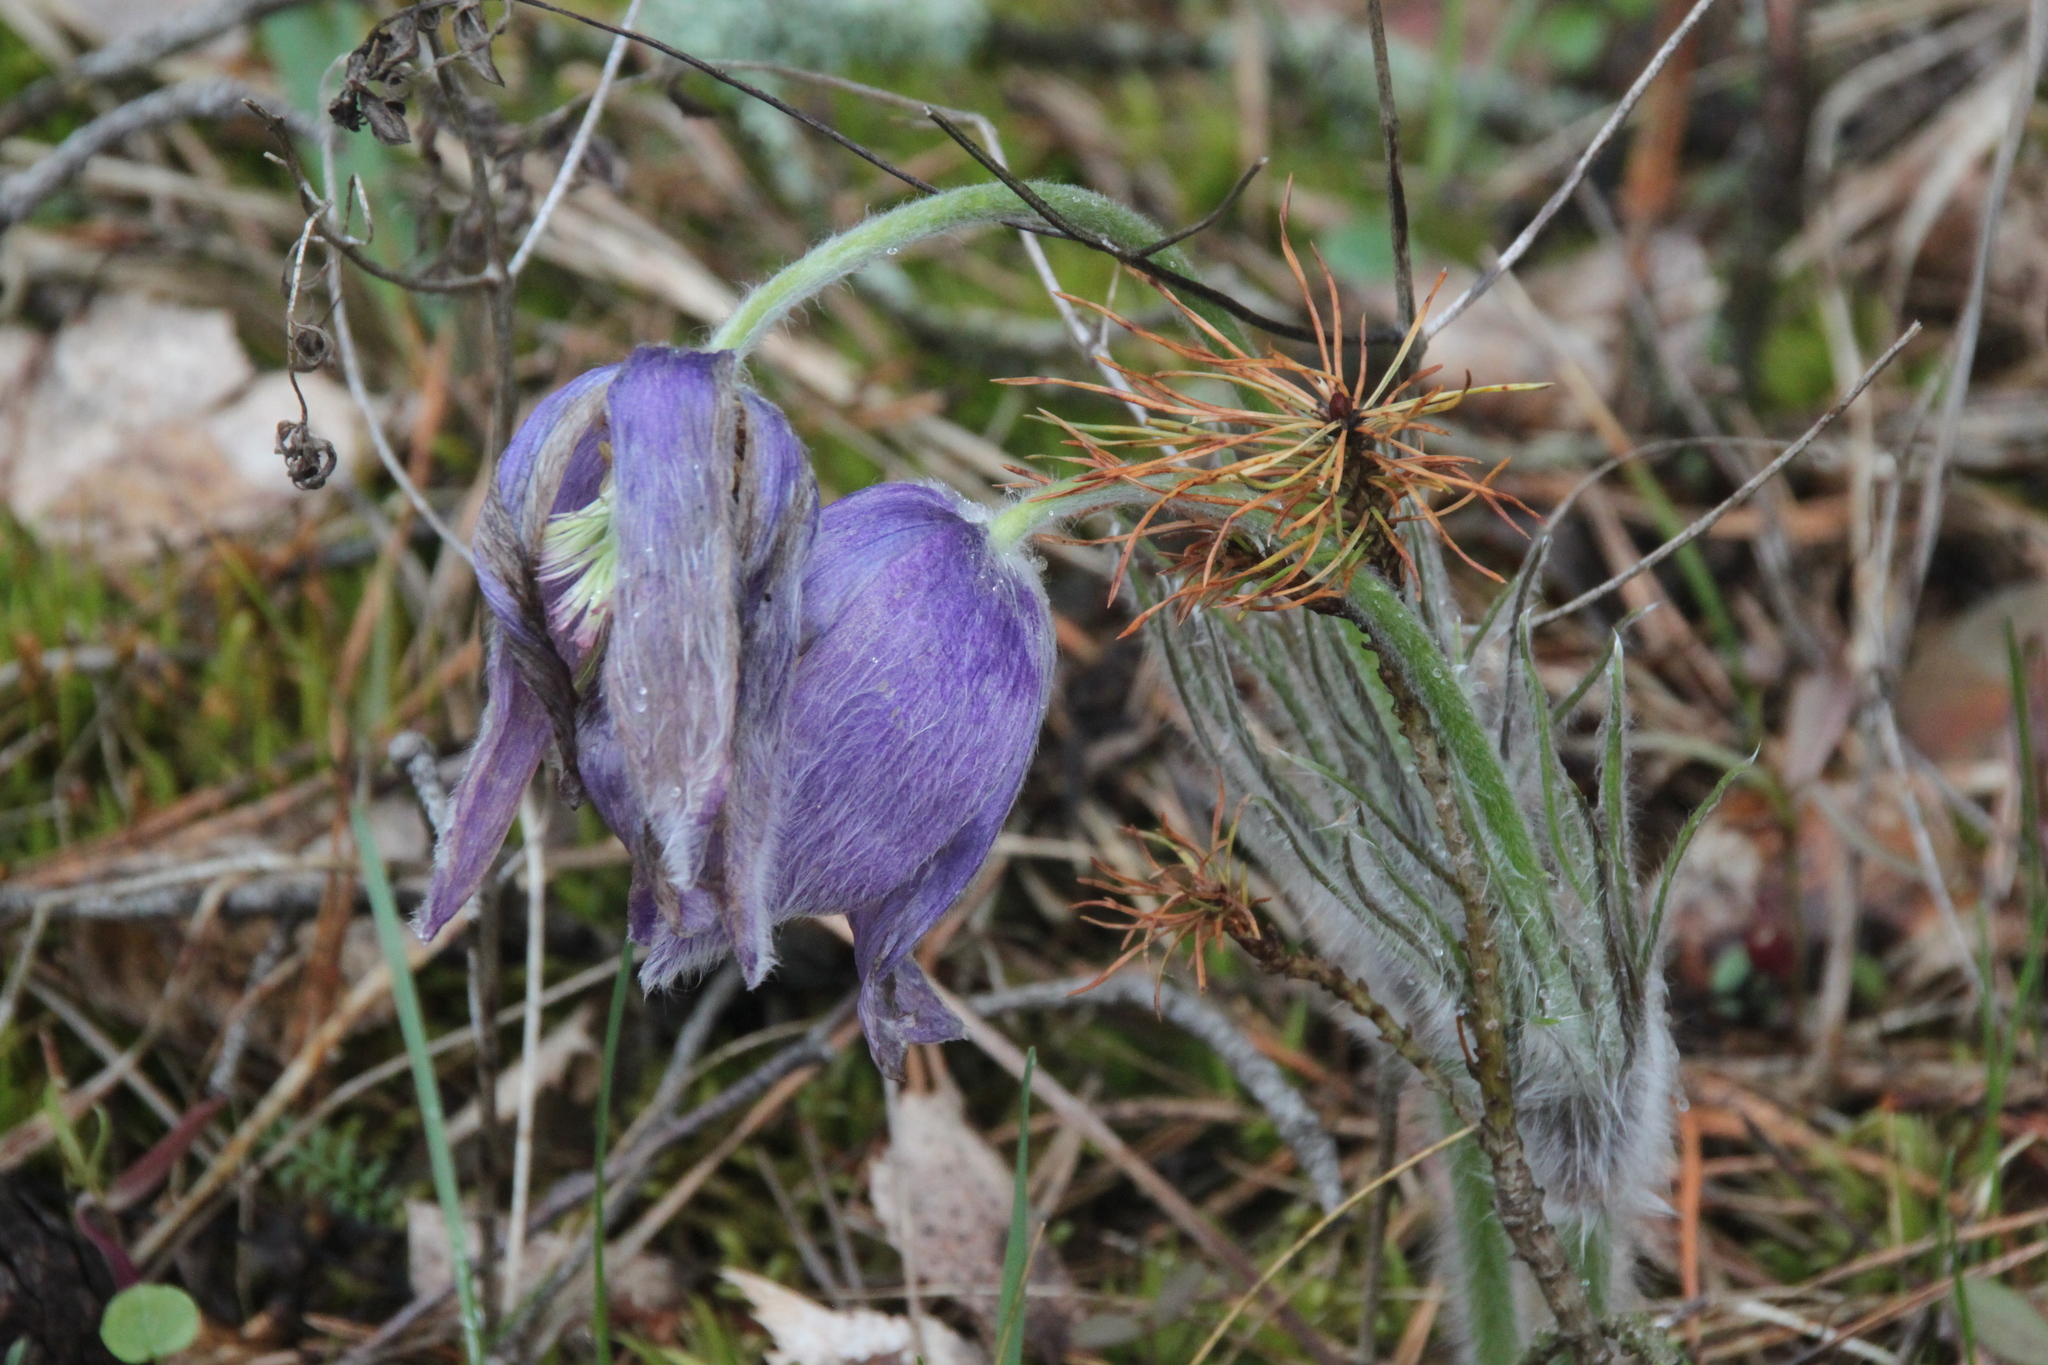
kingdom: Plantae
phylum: Tracheophyta
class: Magnoliopsida
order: Ranunculales
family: Ranunculaceae
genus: Pulsatilla
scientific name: Pulsatilla patens
